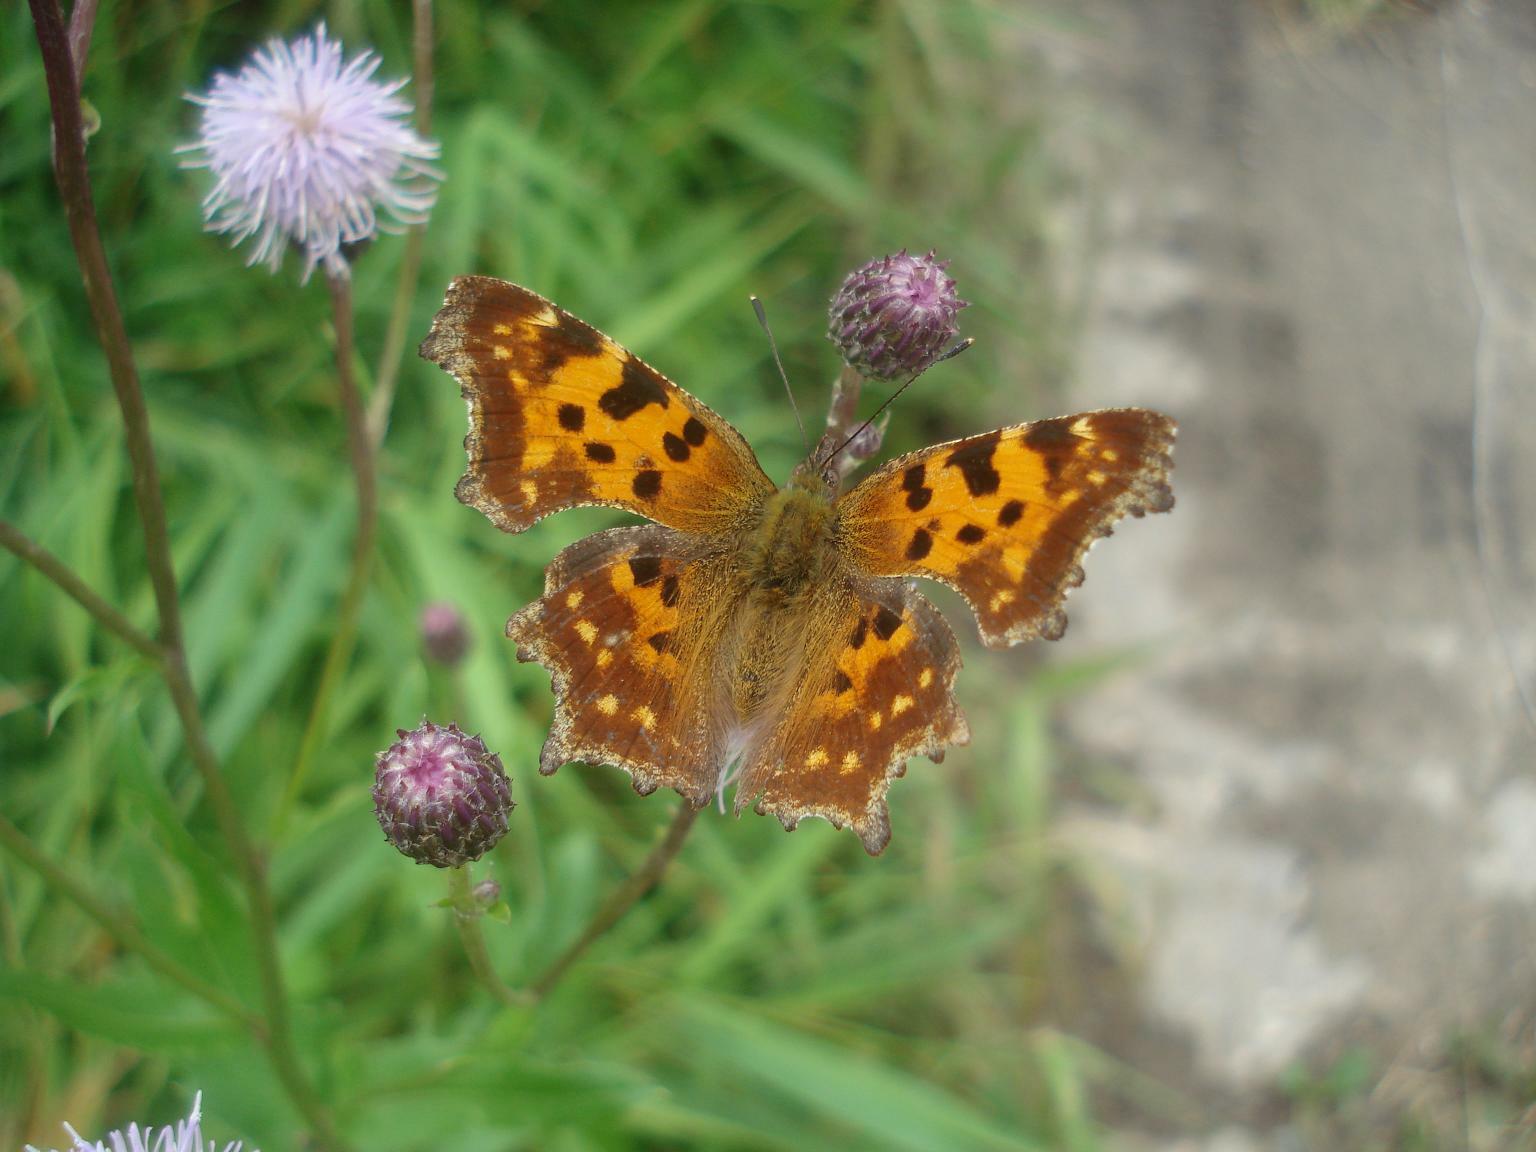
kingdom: Animalia
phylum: Arthropoda
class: Insecta
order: Lepidoptera
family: Nymphalidae
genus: Polygonia
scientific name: Polygonia c-album
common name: Comma
